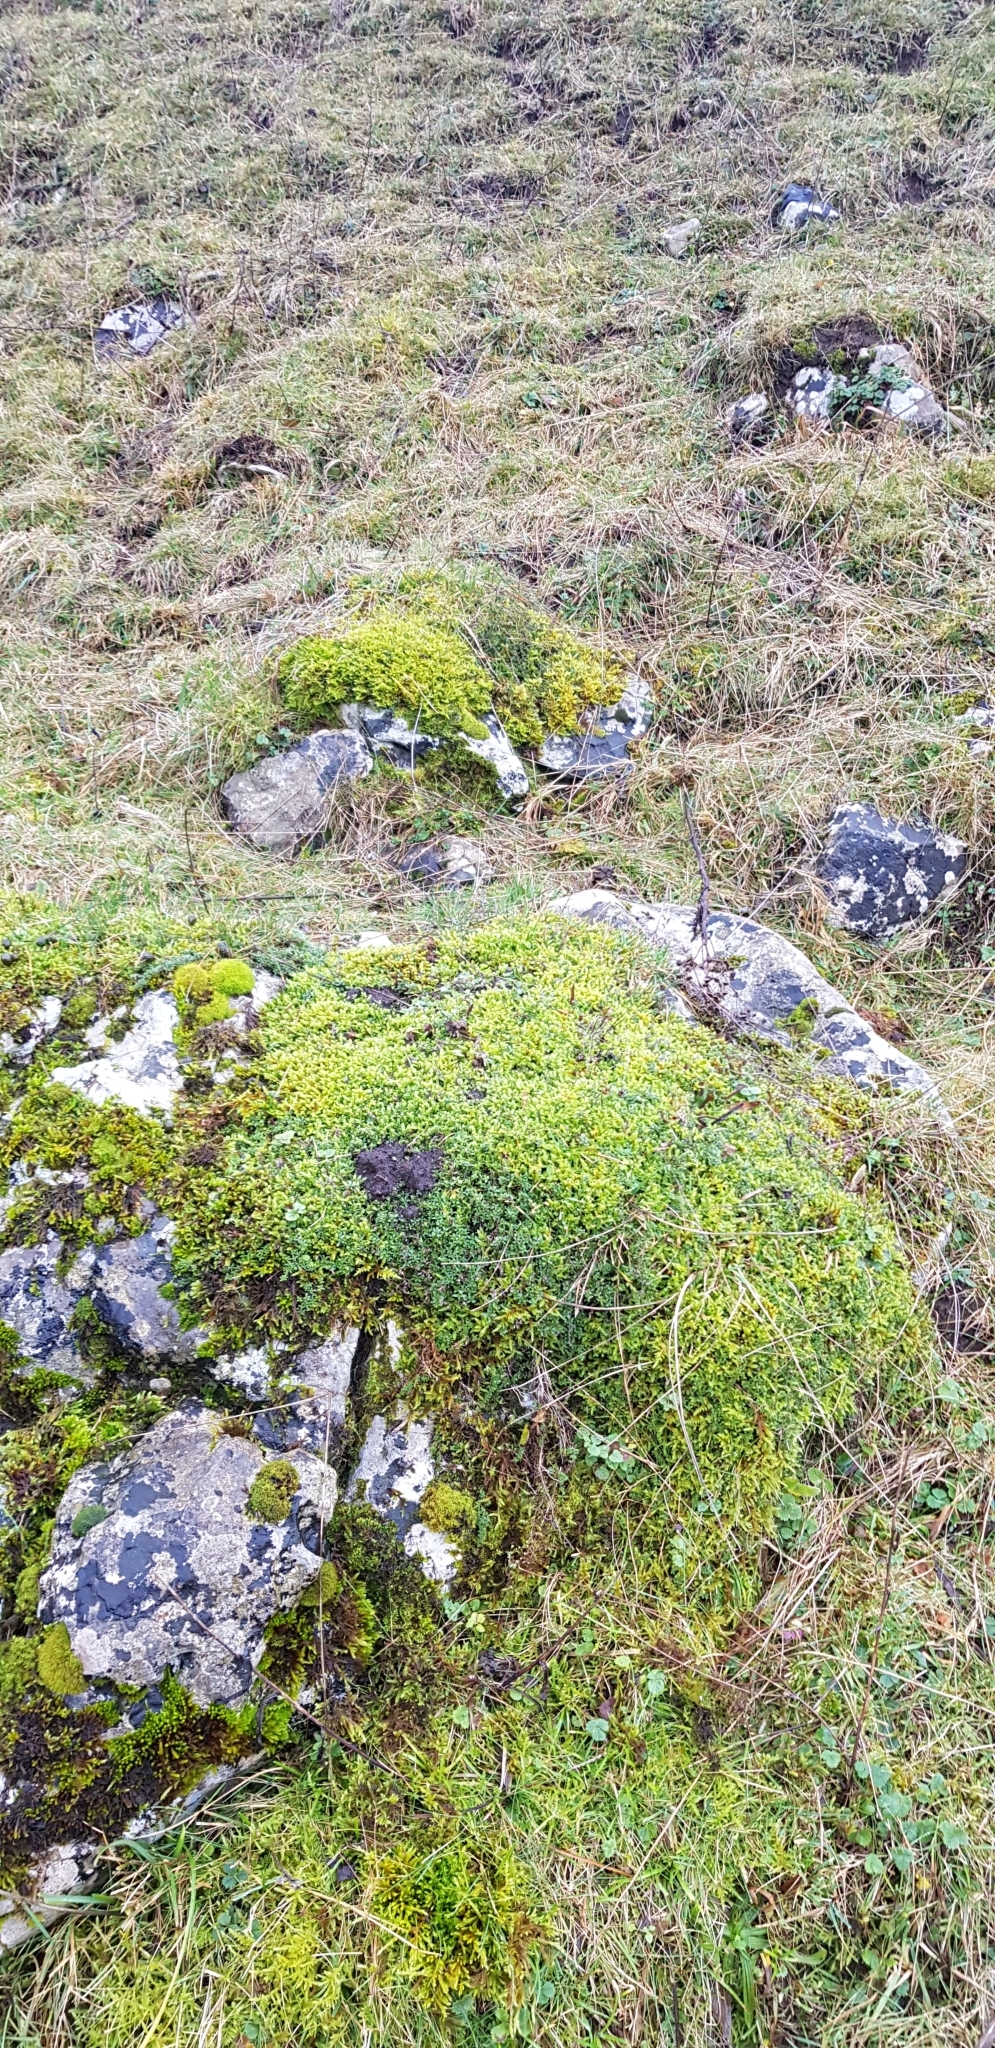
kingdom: Plantae
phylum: Bryophyta
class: Bryopsida
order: Hypnales
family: Hypnaceae
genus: Hypnum
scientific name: Hypnum cupressiforme
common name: Cypress-leaved plait-moss
